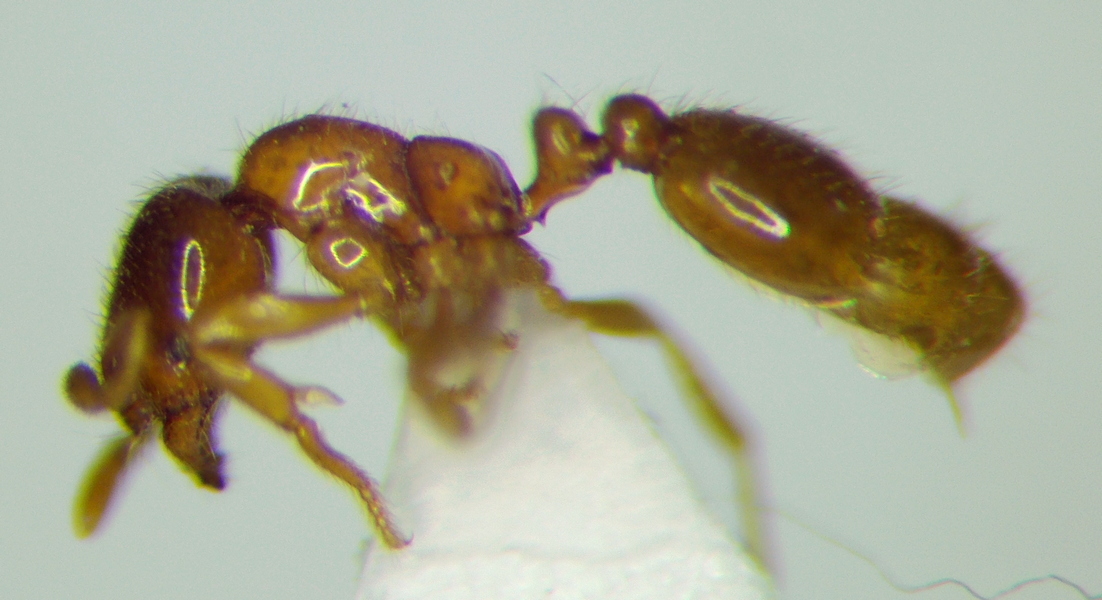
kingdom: Animalia
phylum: Arthropoda
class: Insecta
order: Hymenoptera
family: Formicidae
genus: Solenopsis
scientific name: Solenopsis fugax
